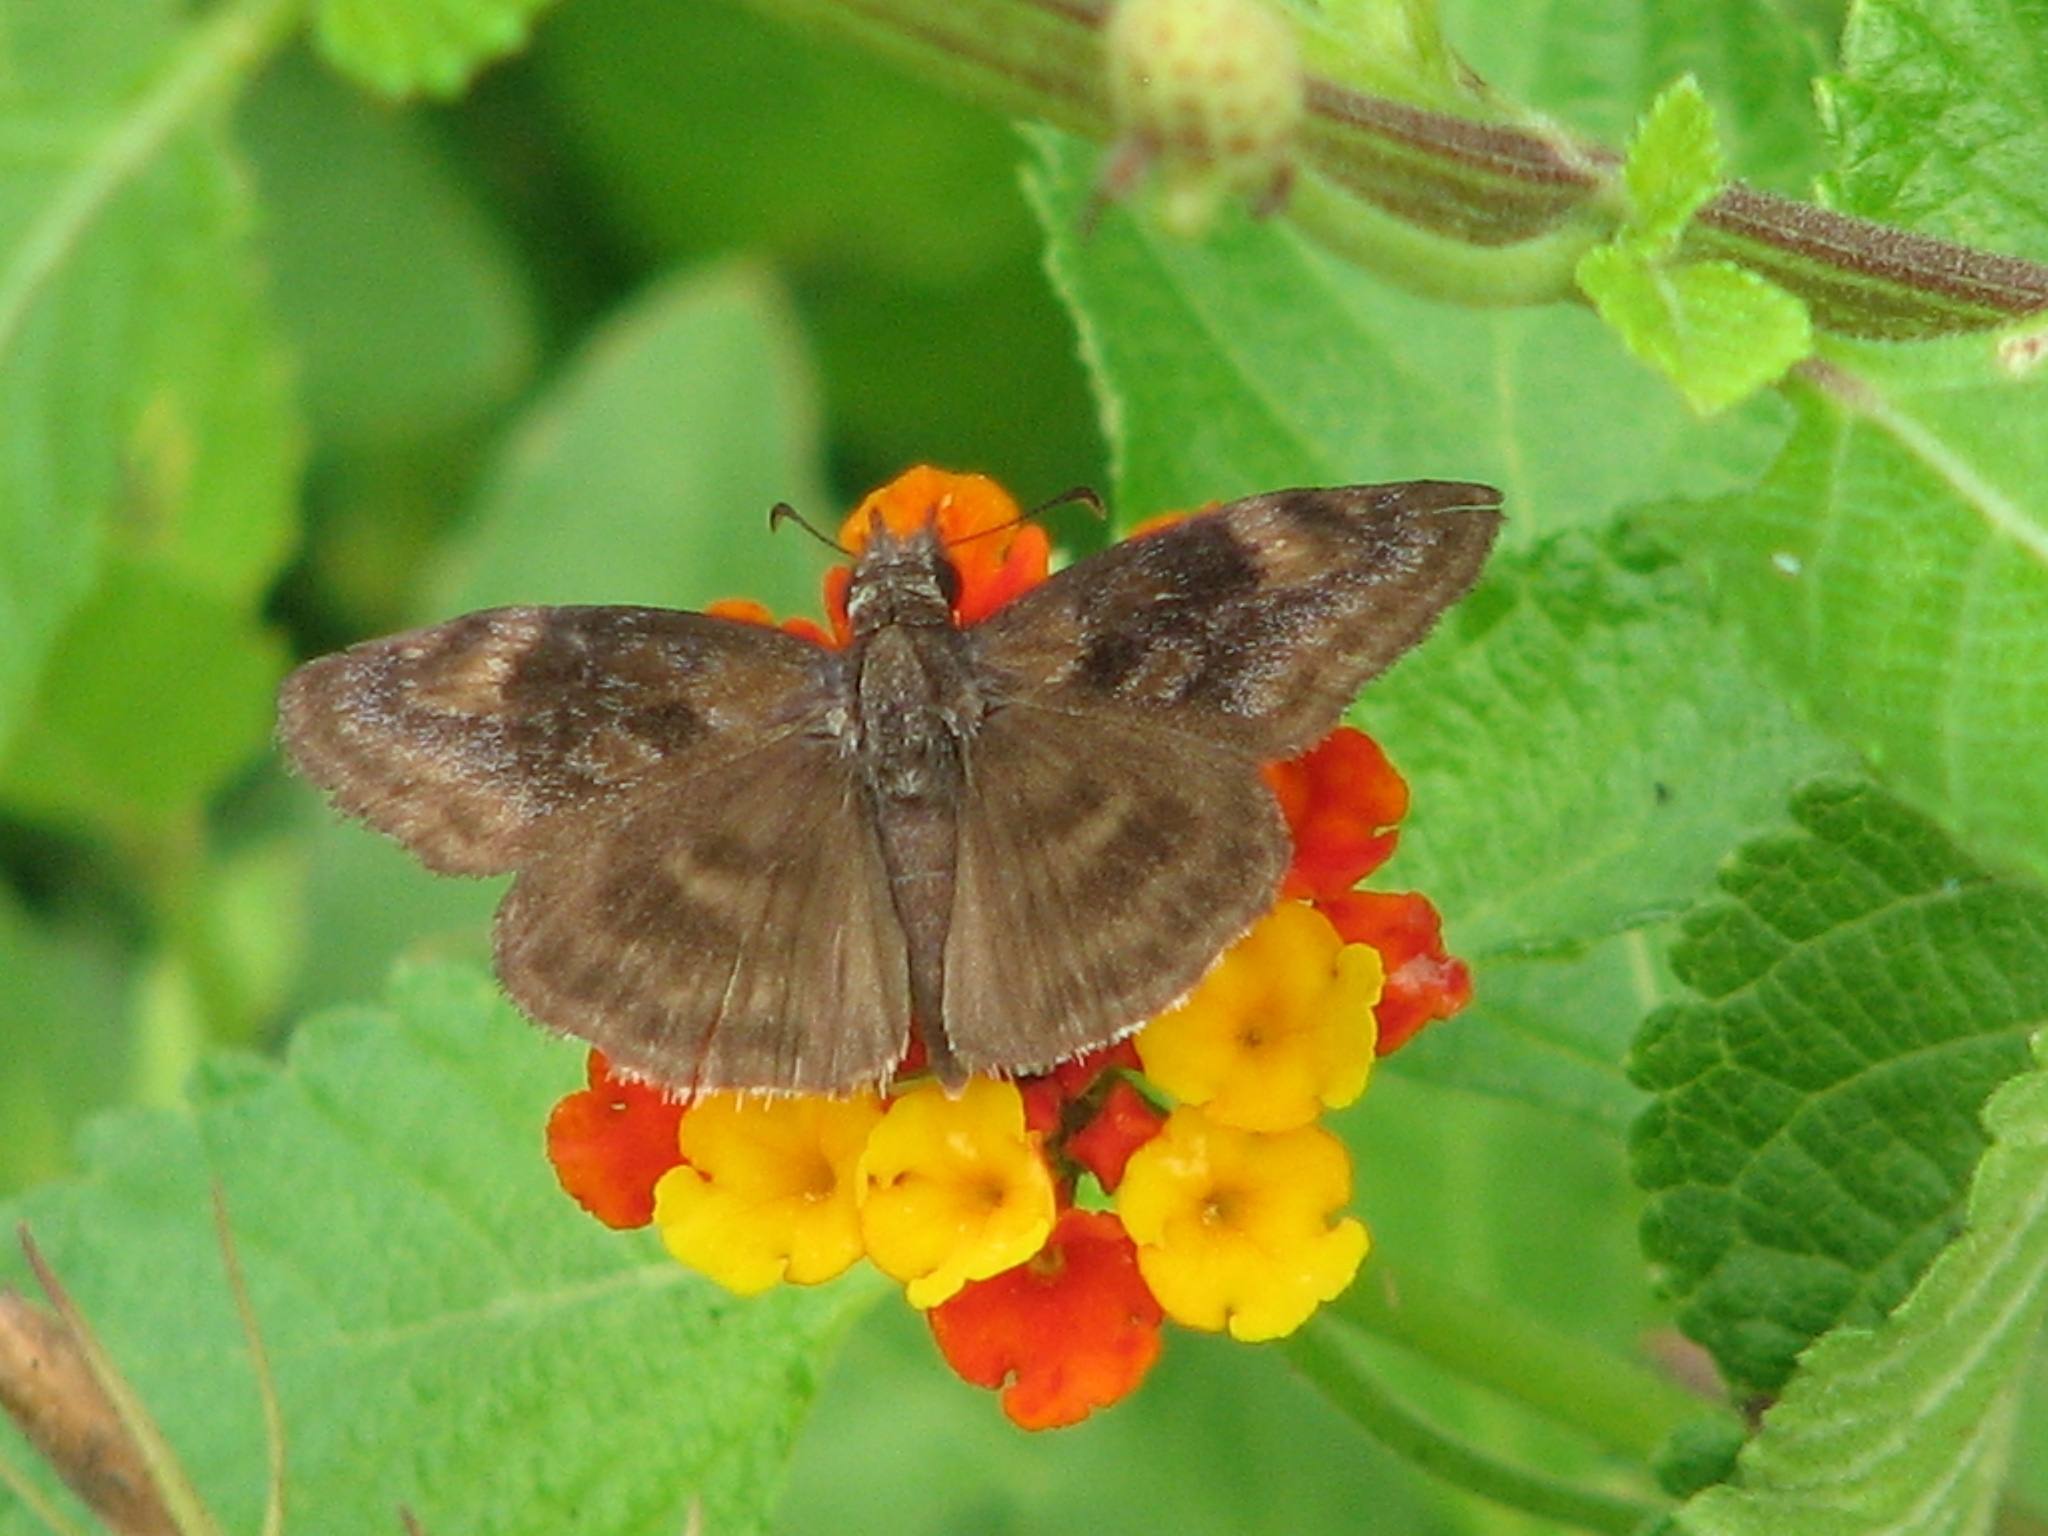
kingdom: Animalia
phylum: Arthropoda
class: Insecta
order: Lepidoptera
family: Hesperiidae
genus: Gesta
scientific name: Gesta gesta
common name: Gesta duskywing
